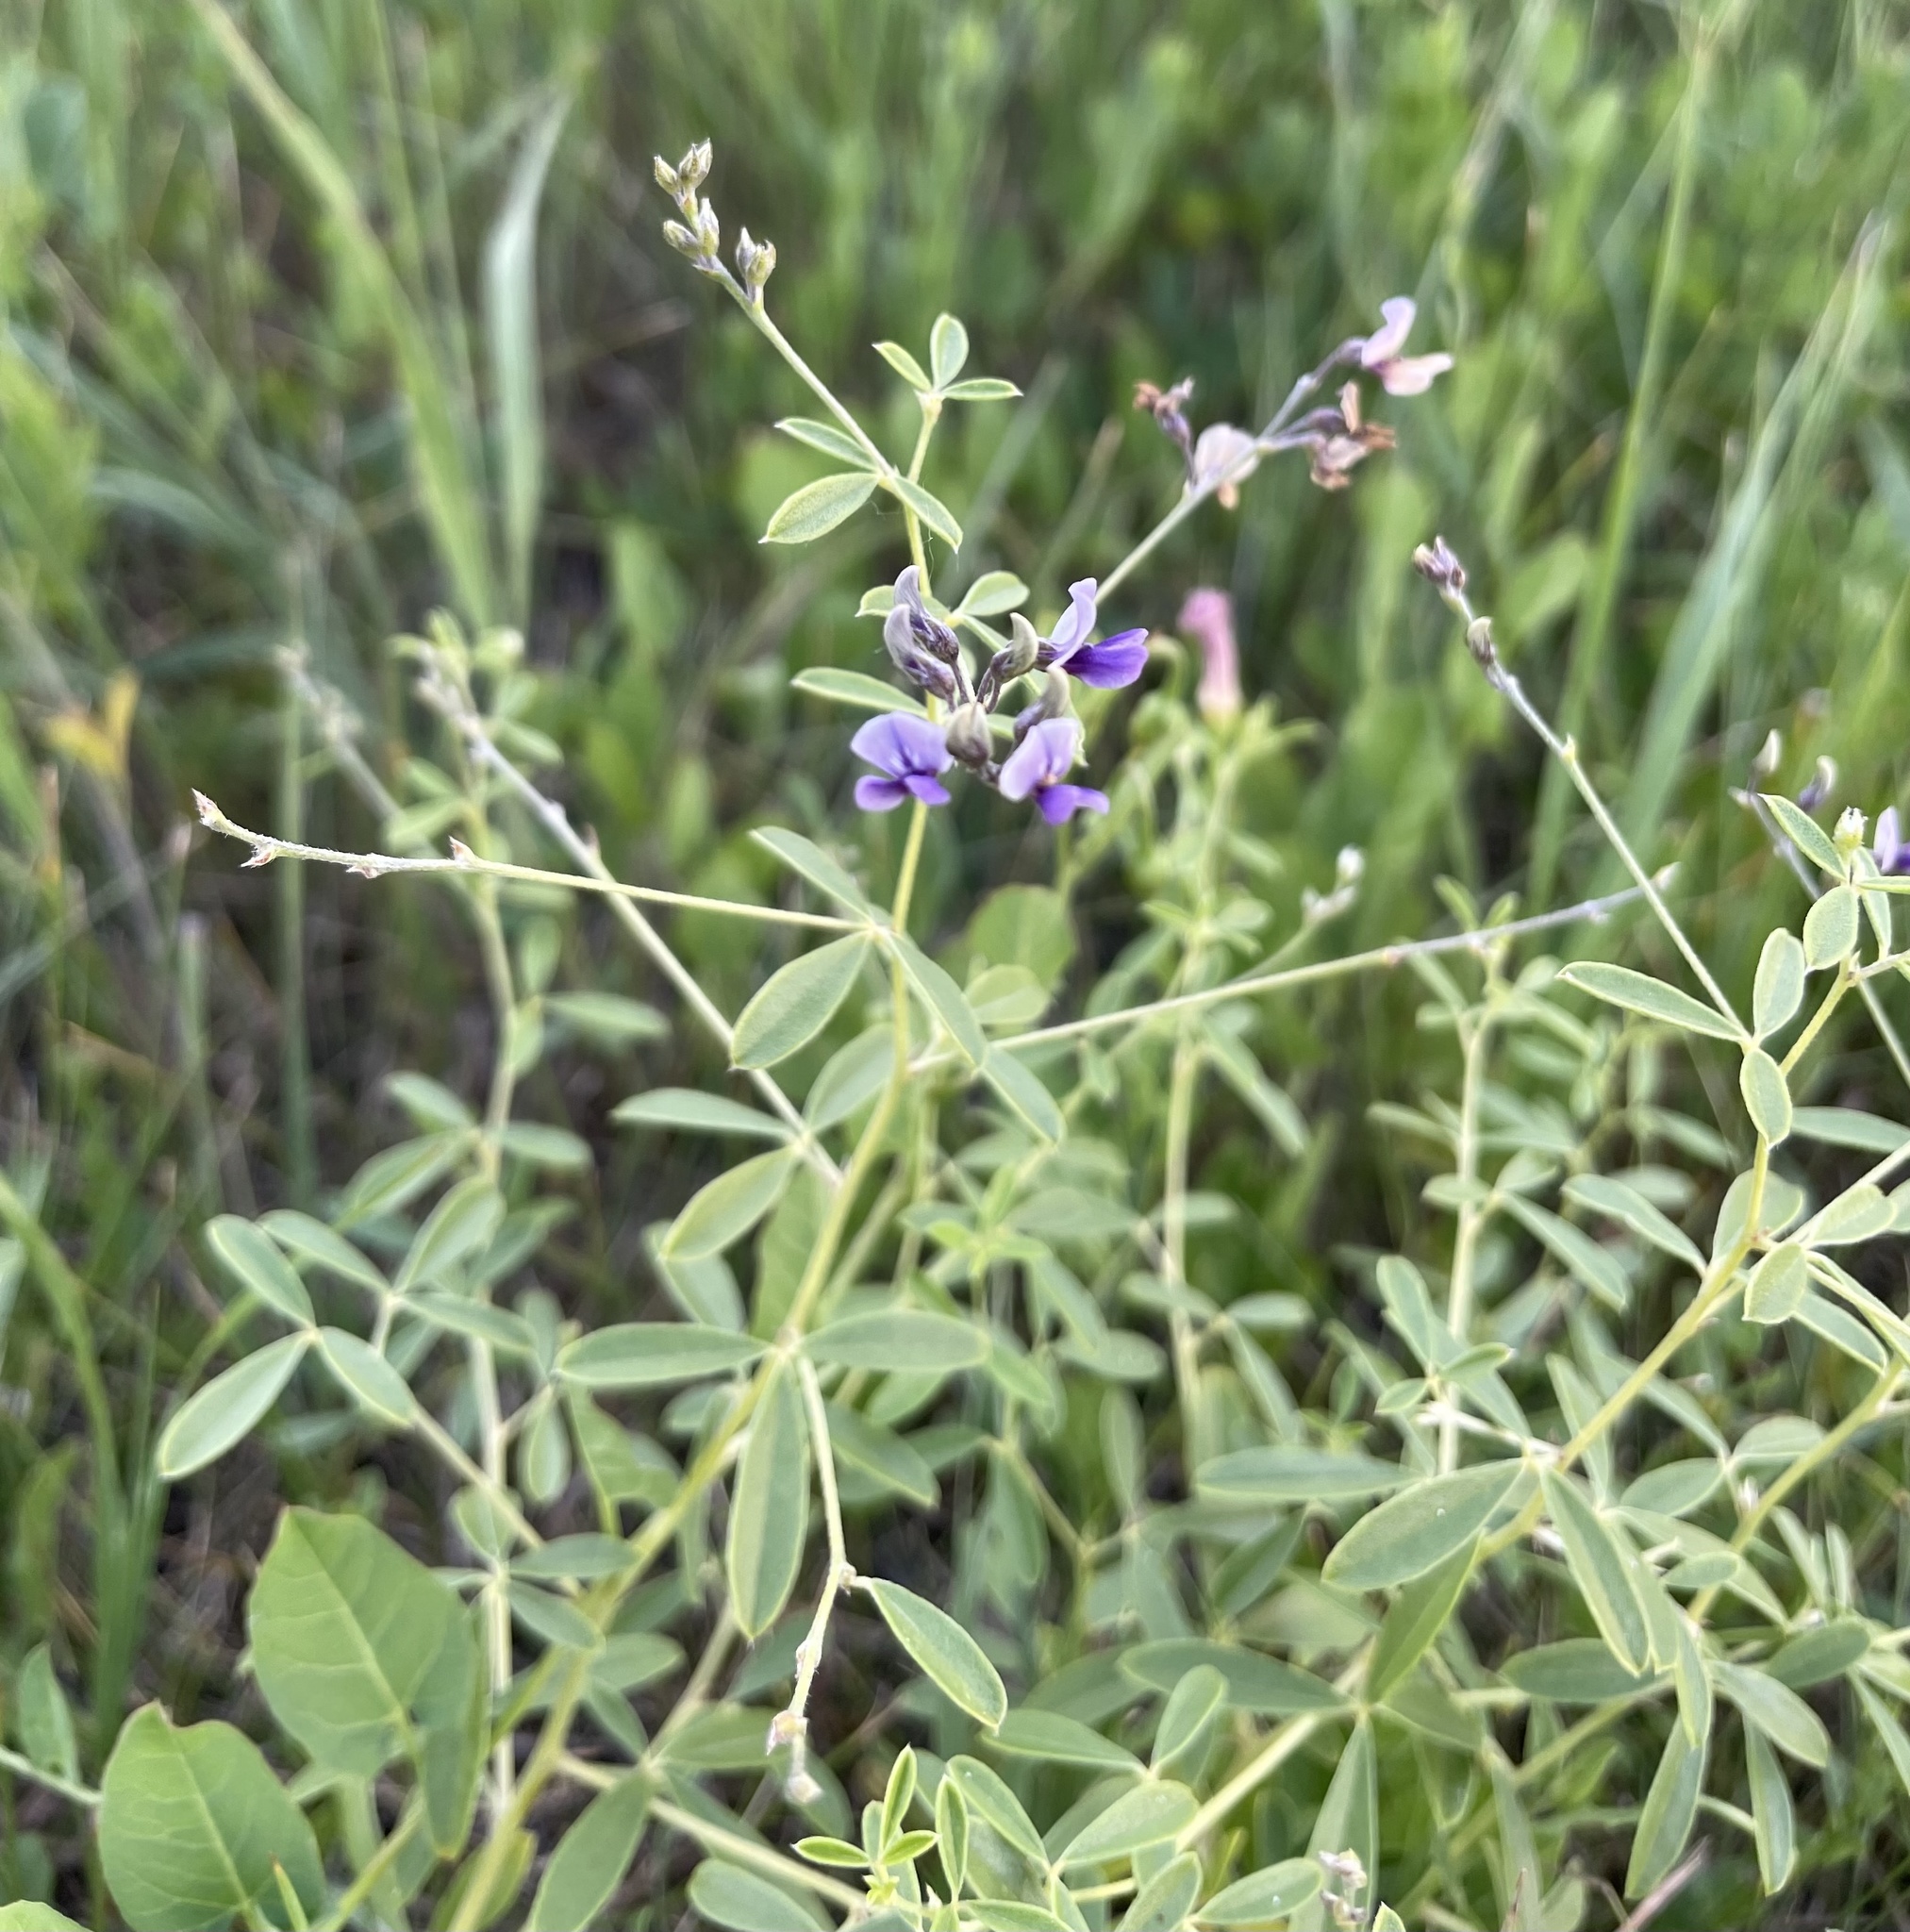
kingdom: Plantae
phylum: Tracheophyta
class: Magnoliopsida
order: Fabales
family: Fabaceae
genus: Pediomelum
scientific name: Pediomelum tenuiflorum
